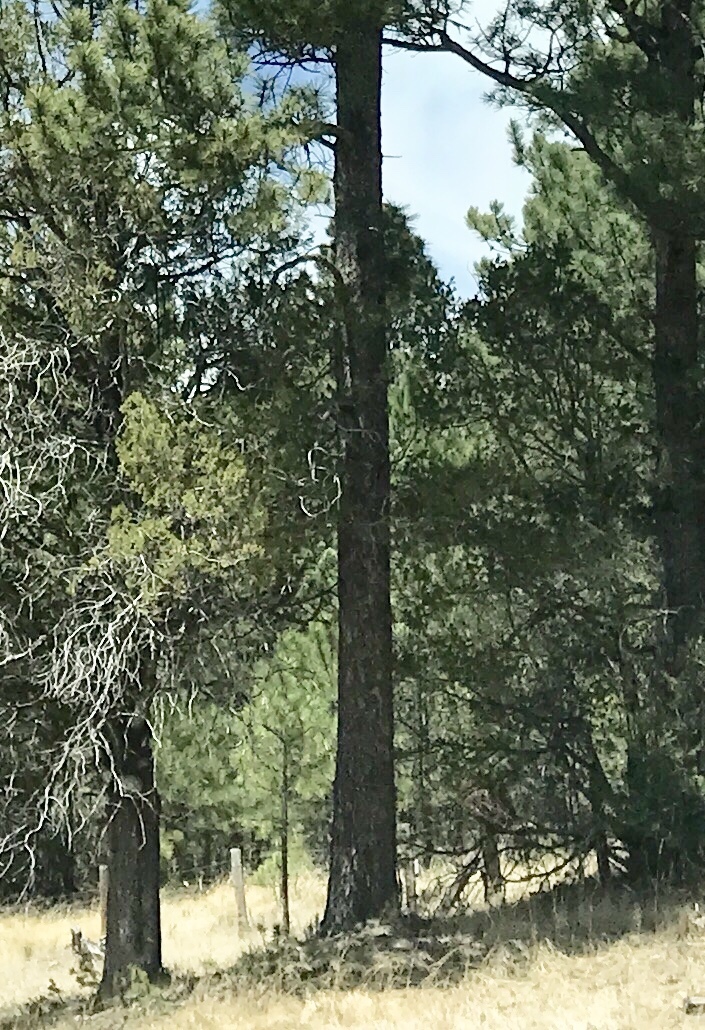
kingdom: Plantae
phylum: Tracheophyta
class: Pinopsida
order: Pinales
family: Pinaceae
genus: Pinus
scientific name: Pinus strobiformis
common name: Southwestern white pine
